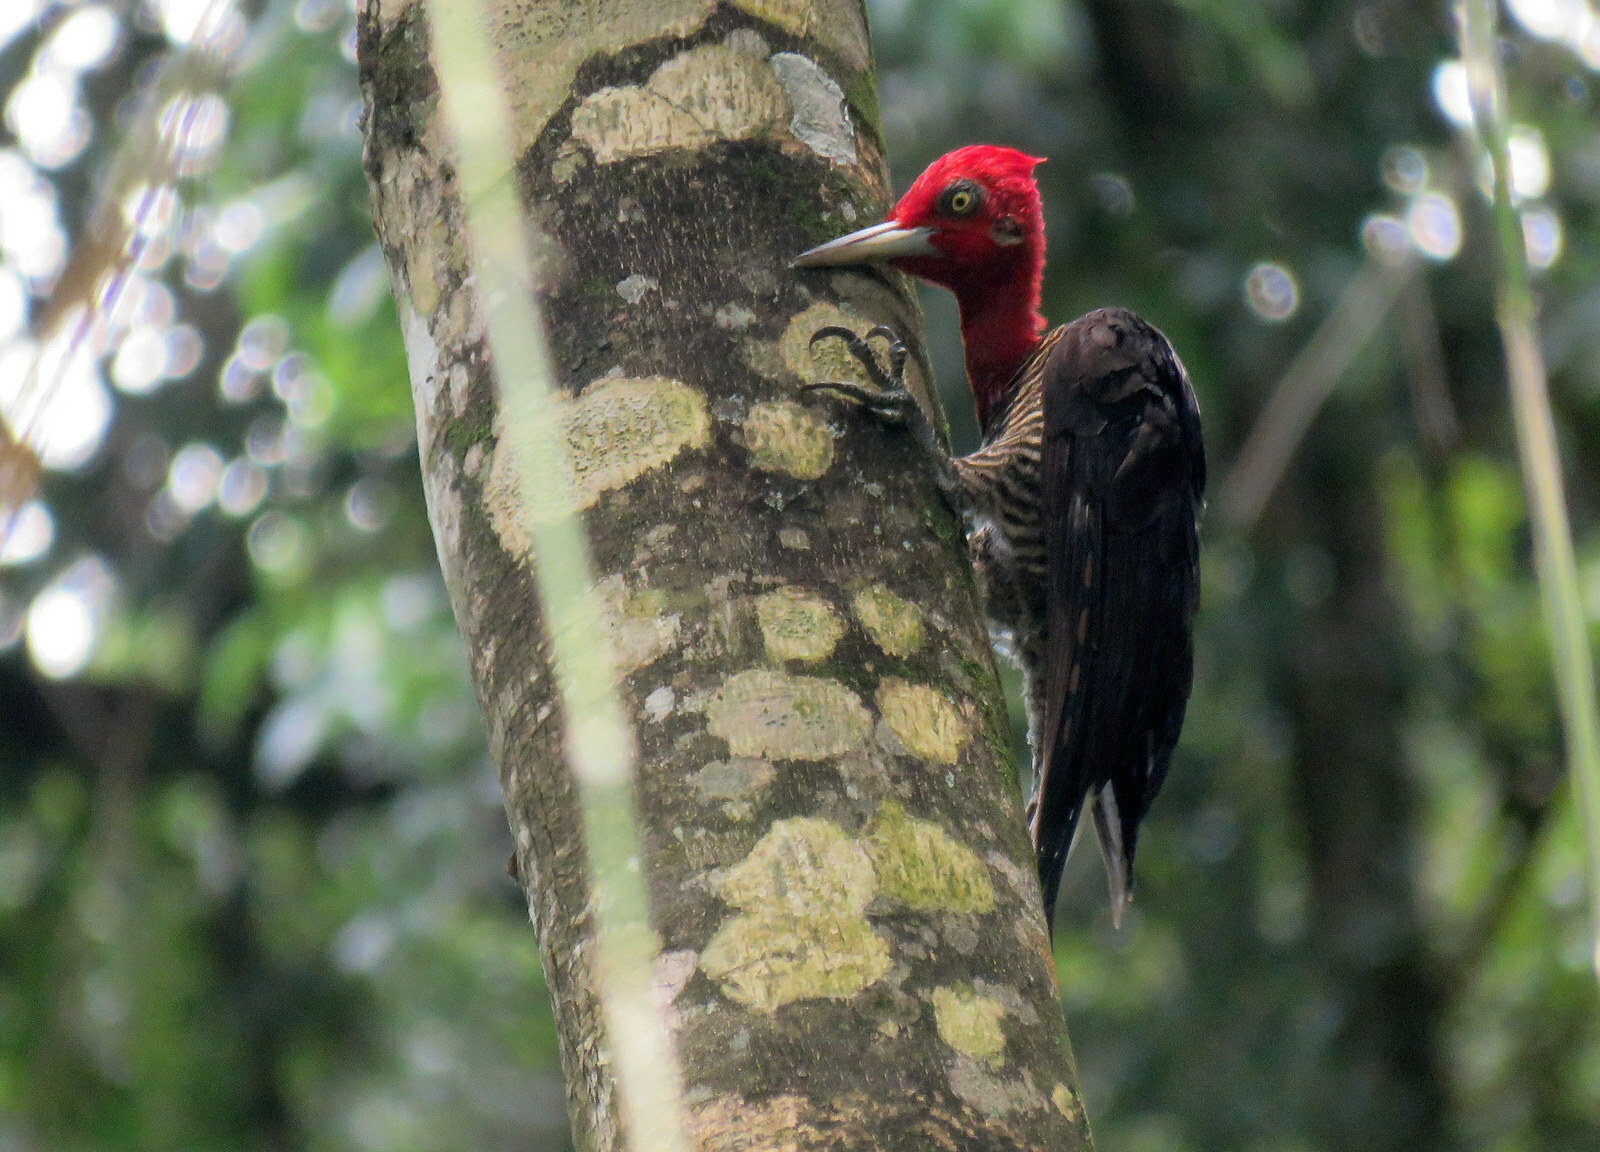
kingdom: Animalia
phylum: Chordata
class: Aves
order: Piciformes
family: Picidae
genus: Campephilus
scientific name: Campephilus robustus
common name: Robust woodpecker
